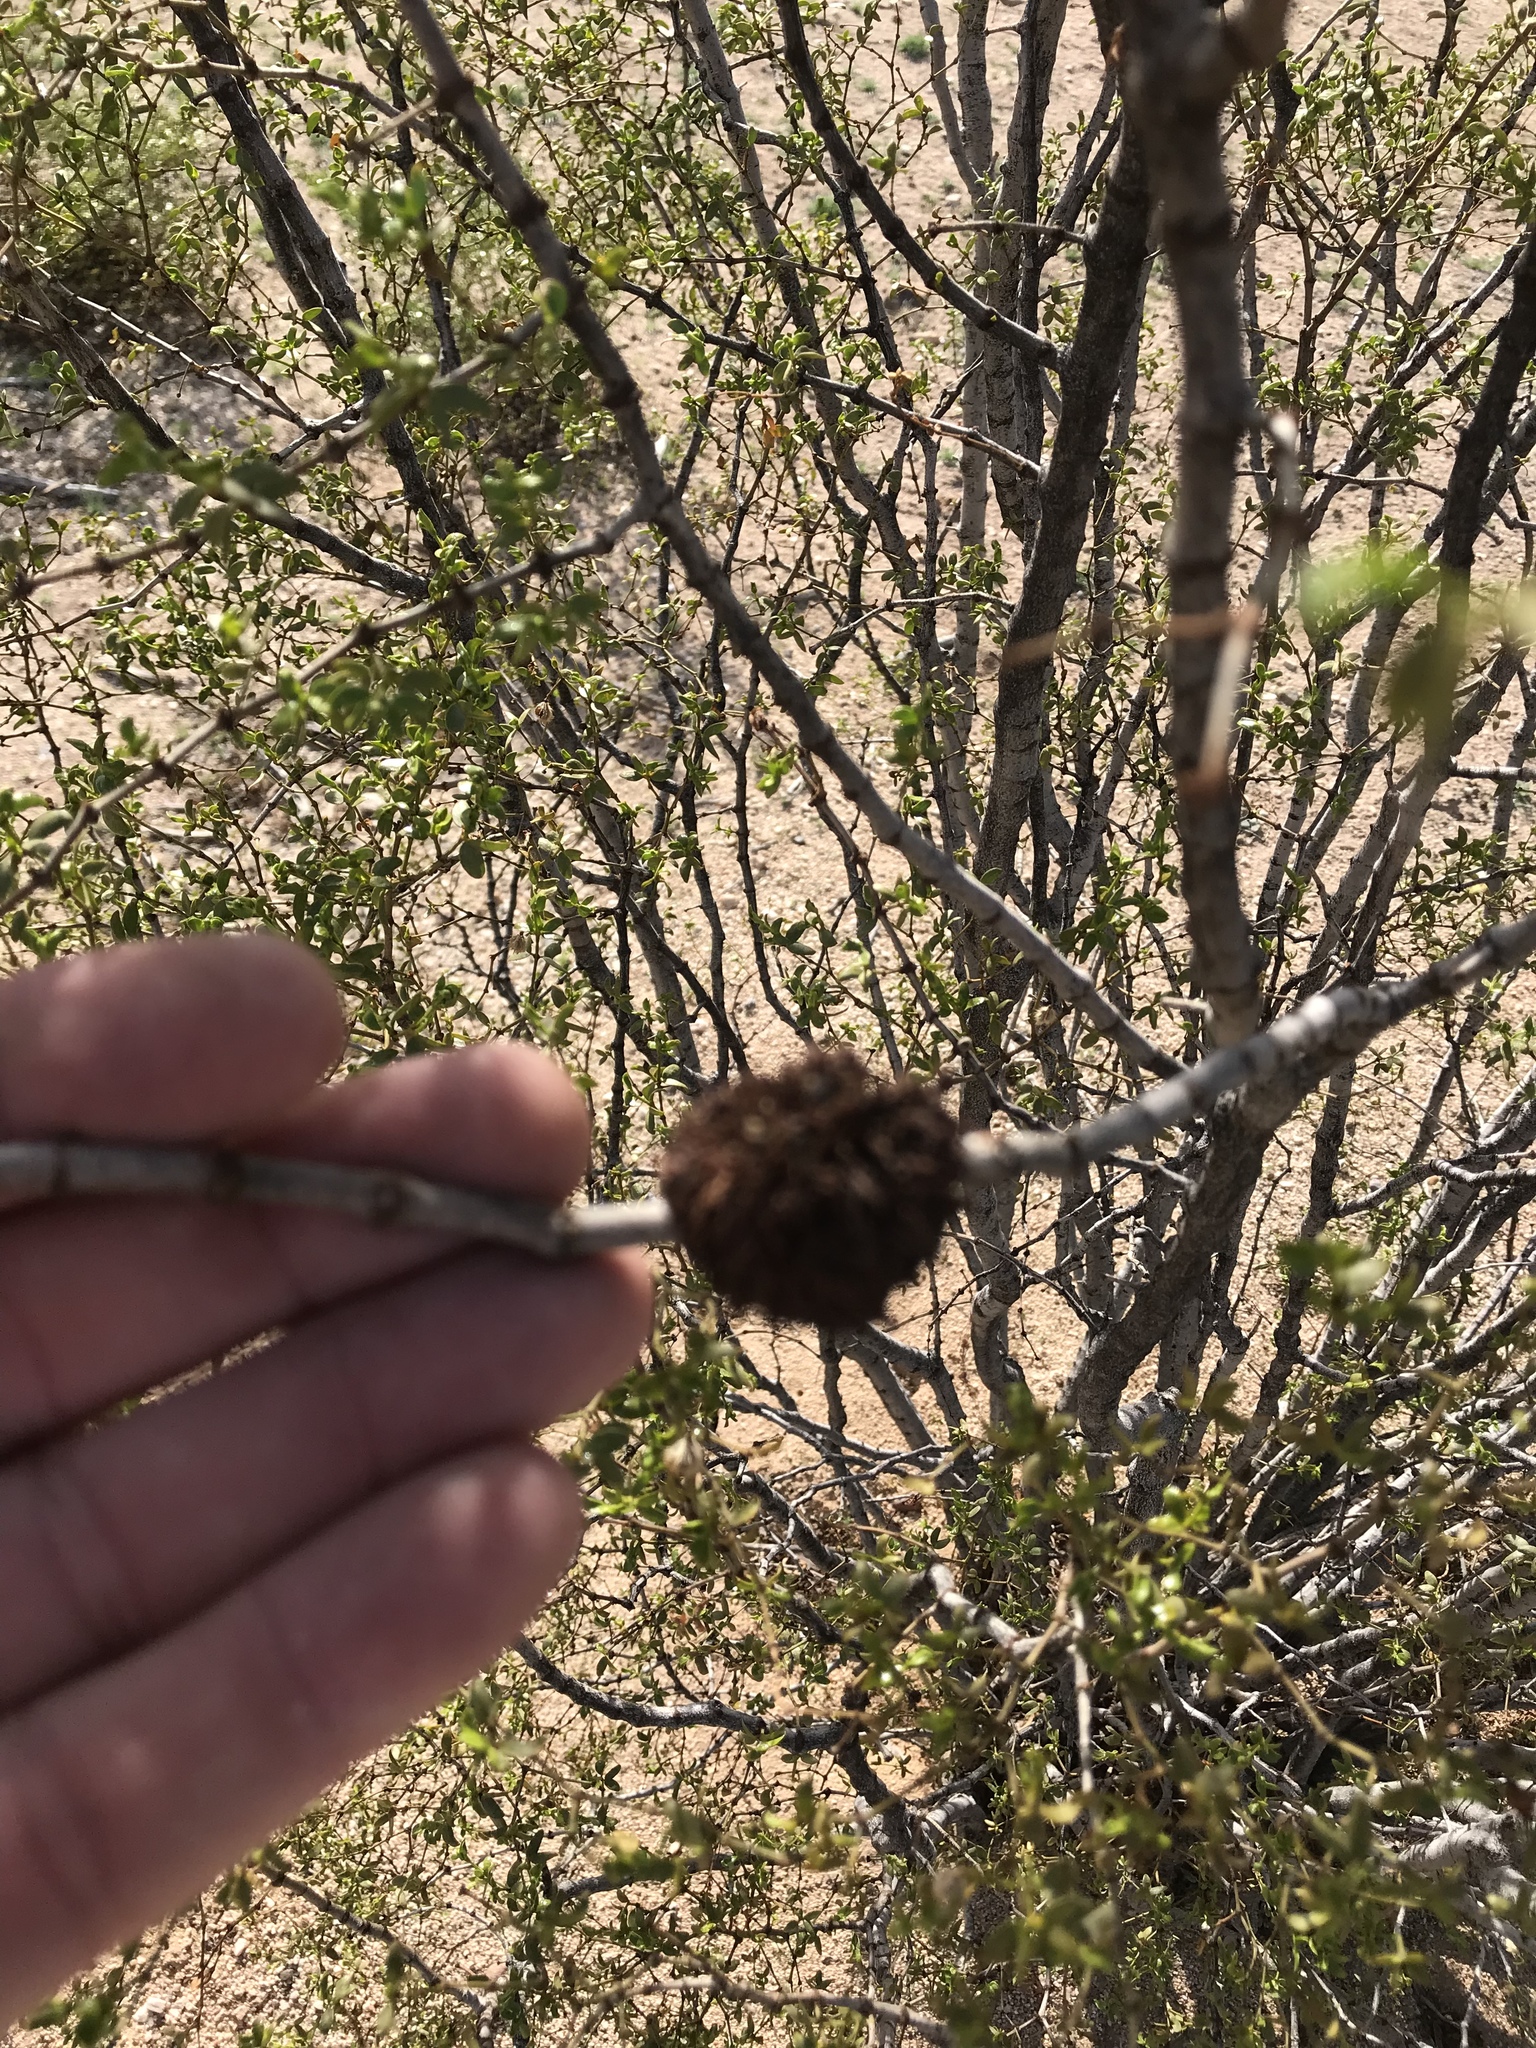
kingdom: Animalia
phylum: Arthropoda
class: Insecta
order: Diptera
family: Cecidomyiidae
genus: Asphondylia
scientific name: Asphondylia auripila
